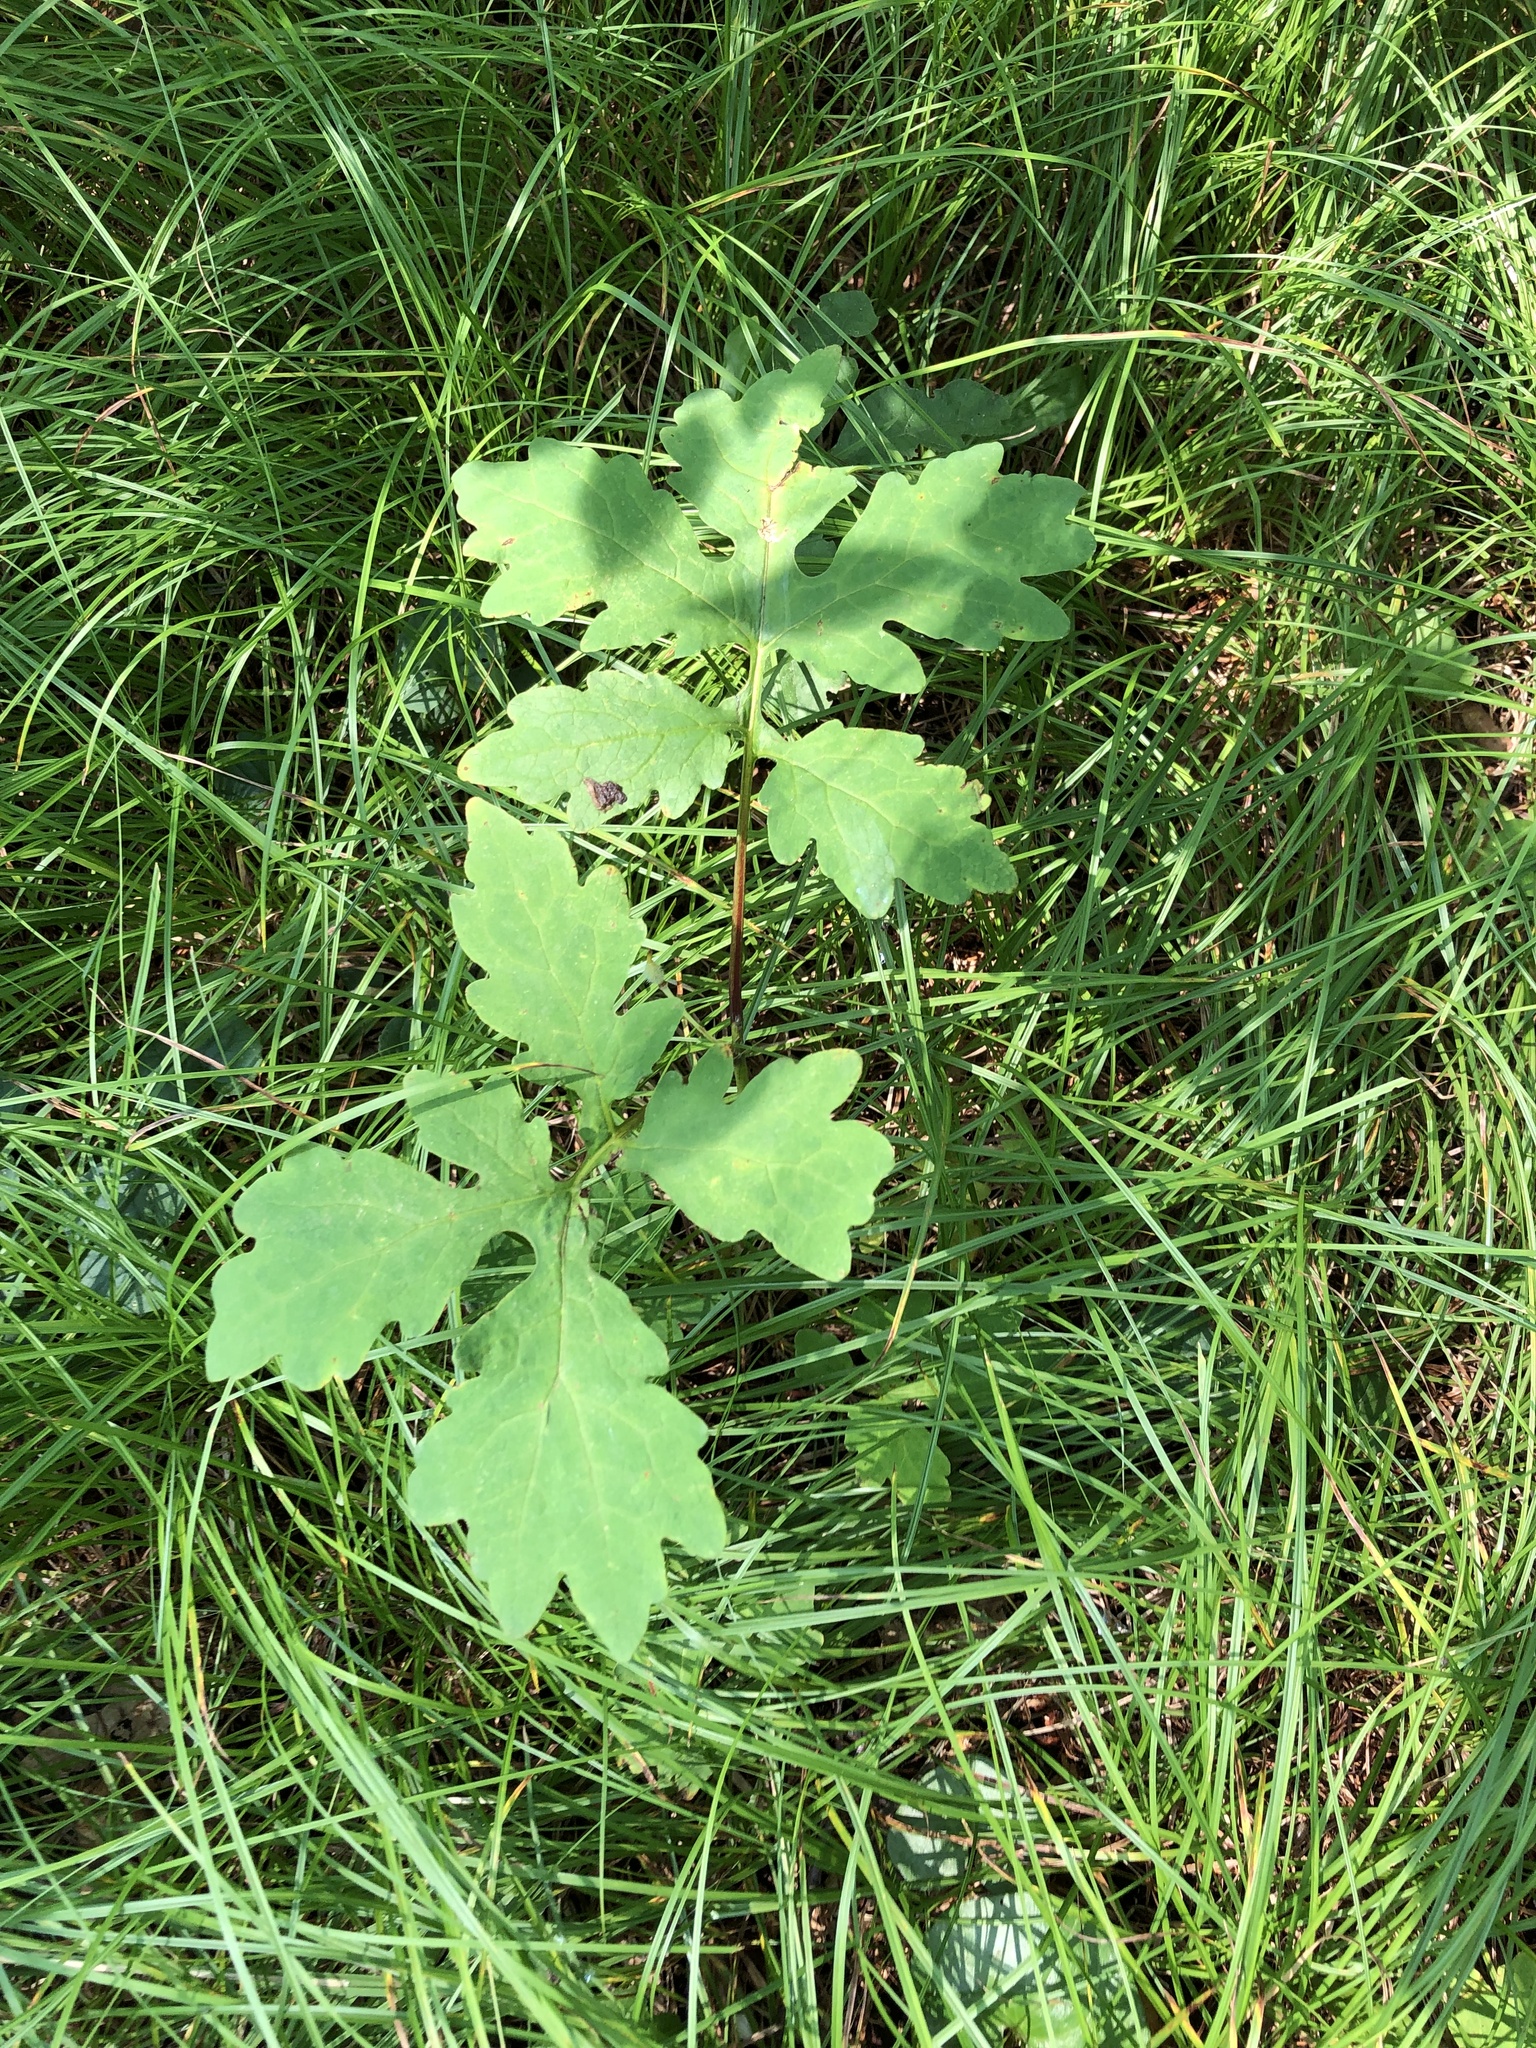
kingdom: Plantae
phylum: Tracheophyta
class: Magnoliopsida
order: Ranunculales
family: Papaveraceae
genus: Stylophorum
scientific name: Stylophorum diphyllum
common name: Celandine poppy
